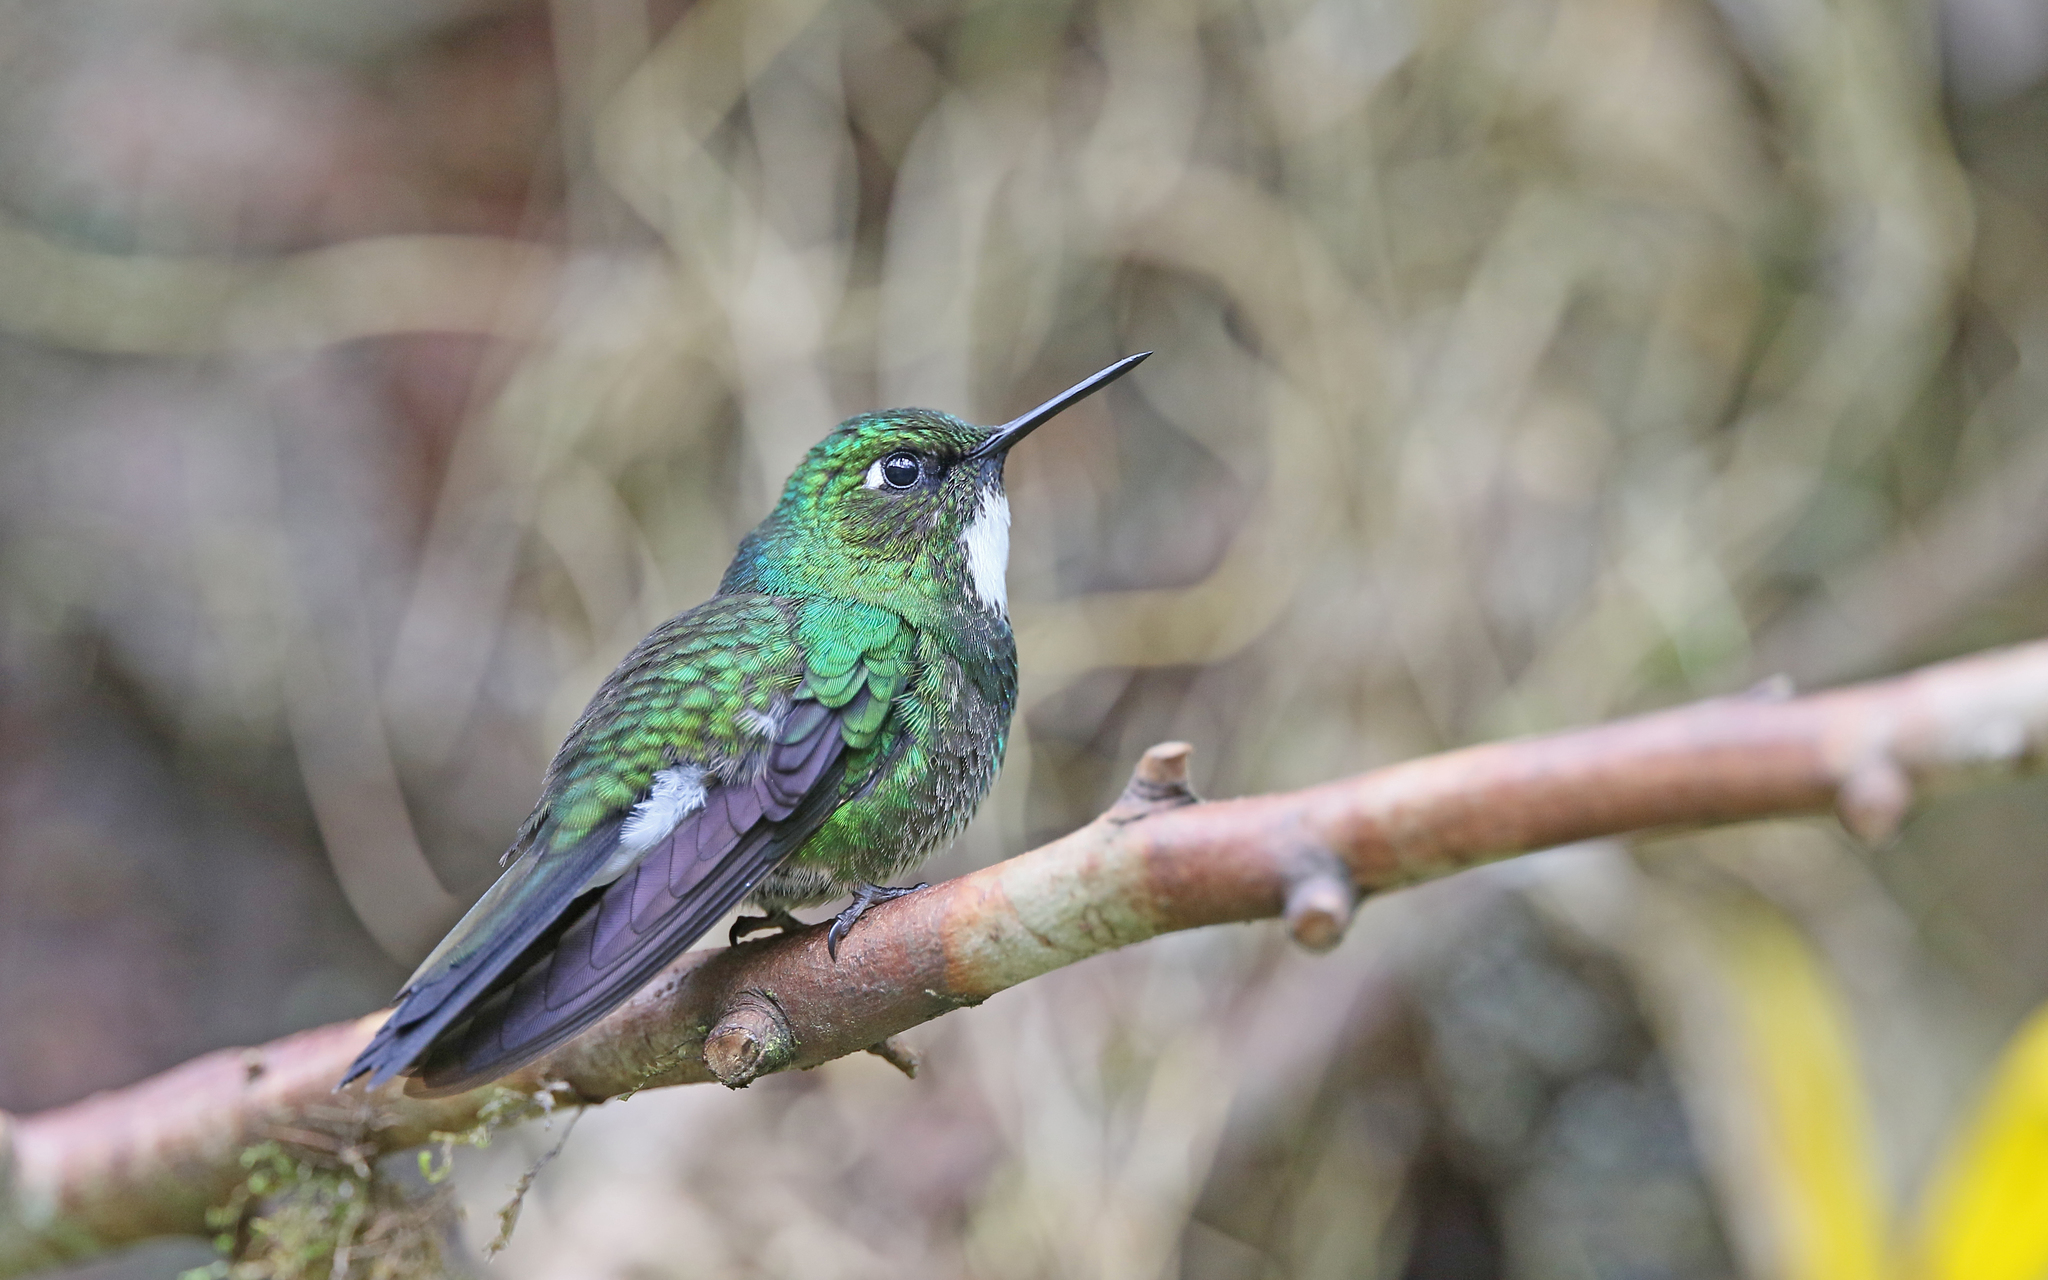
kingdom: Animalia
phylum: Chordata
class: Aves
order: Apodiformes
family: Trochilidae
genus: Heliangelus
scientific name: Heliangelus exortis
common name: Tourmaline sunangel
